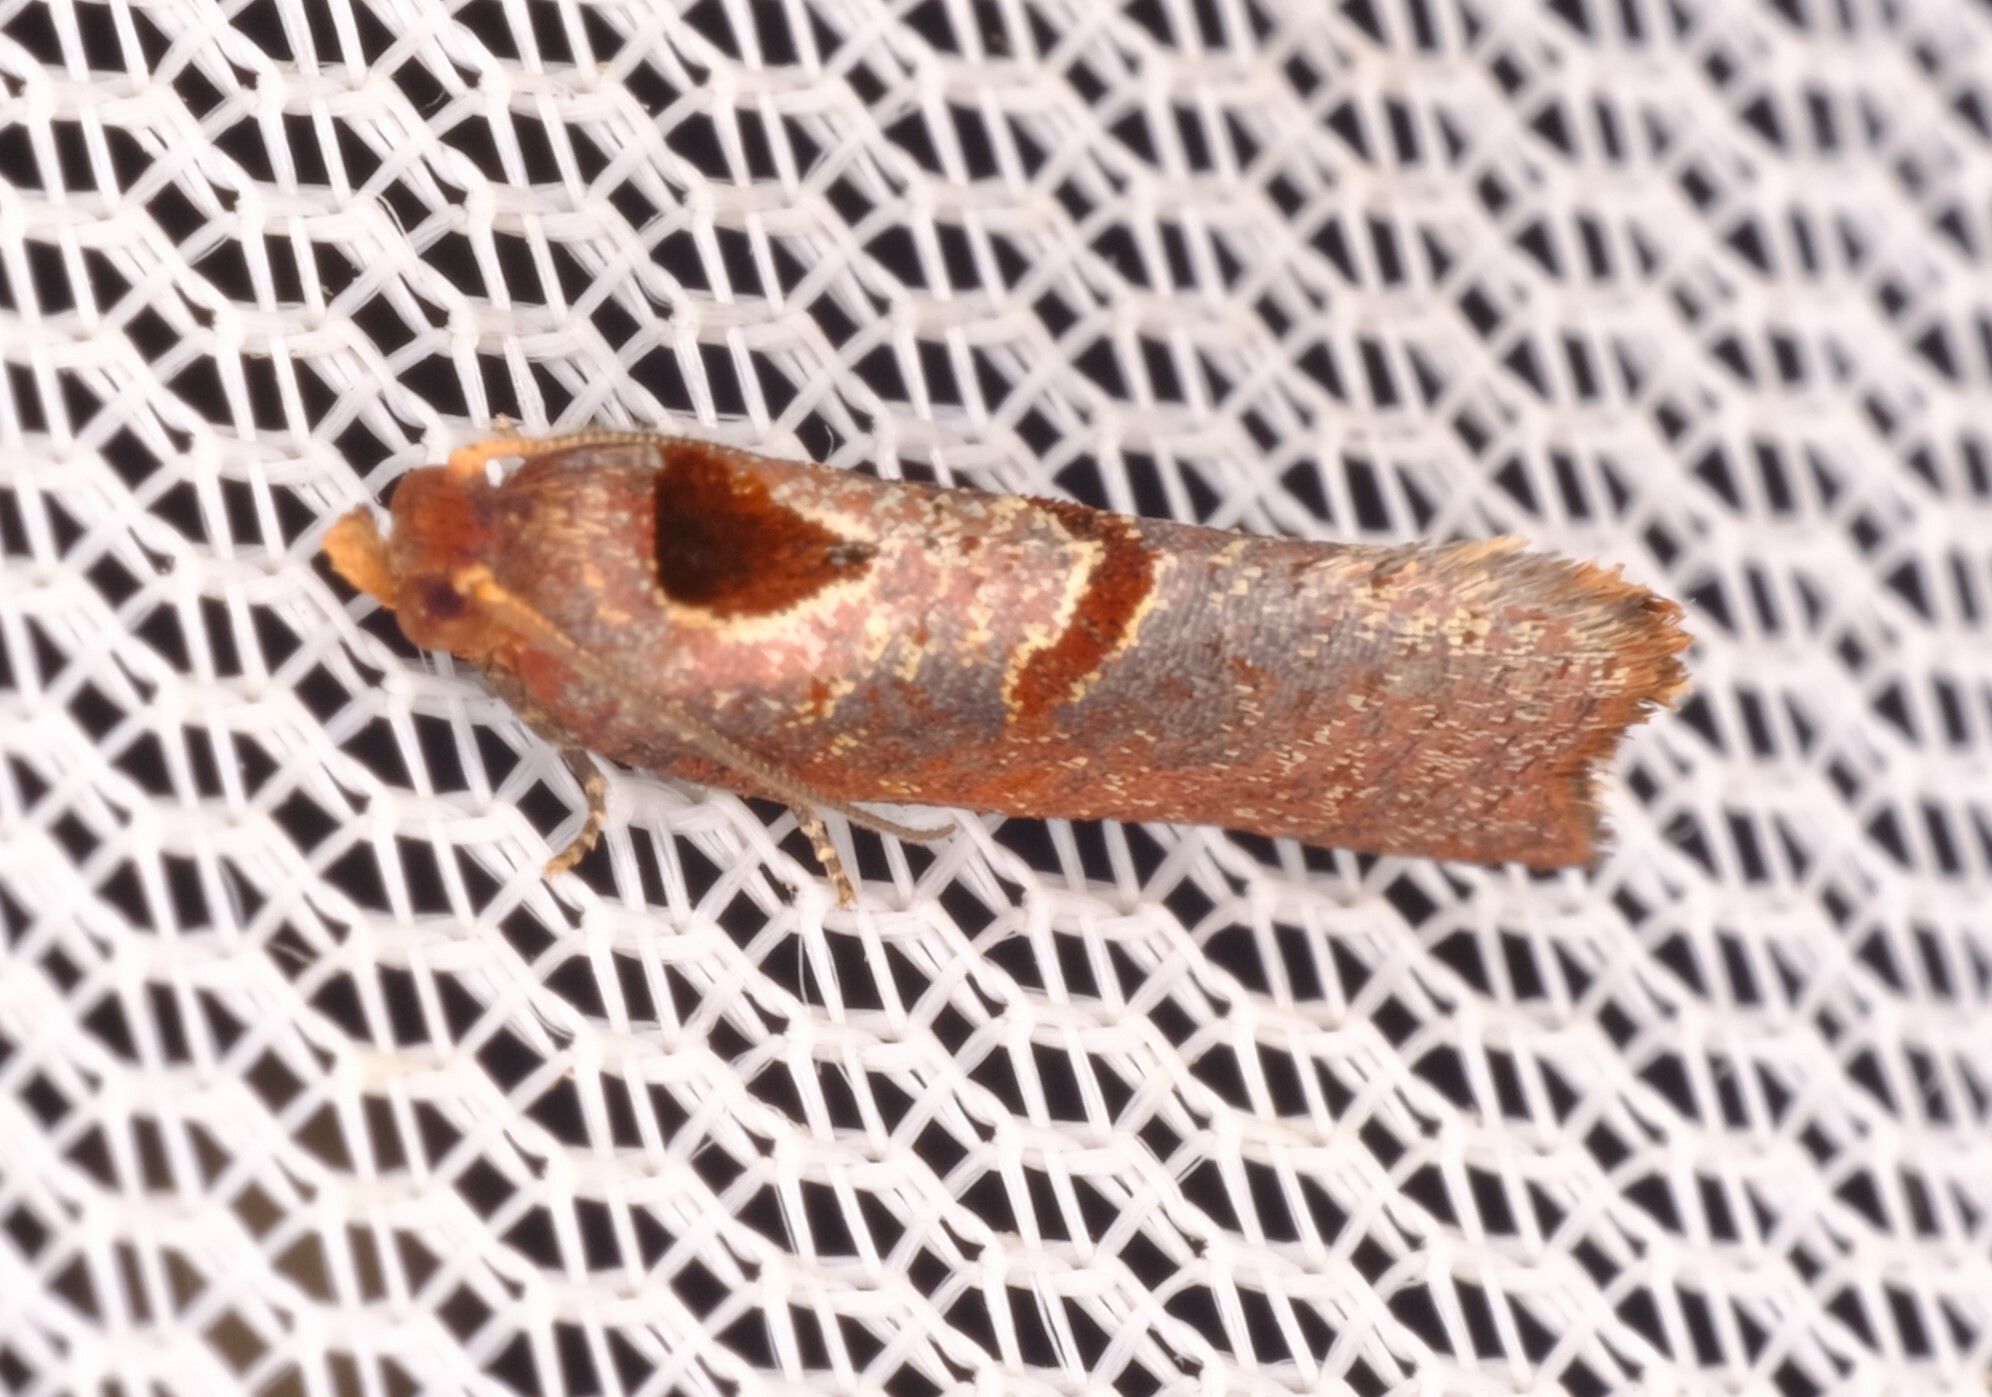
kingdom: Animalia
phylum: Arthropoda
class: Insecta
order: Lepidoptera
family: Tortricidae
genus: Glyphidoptera
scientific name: Glyphidoptera insignana
